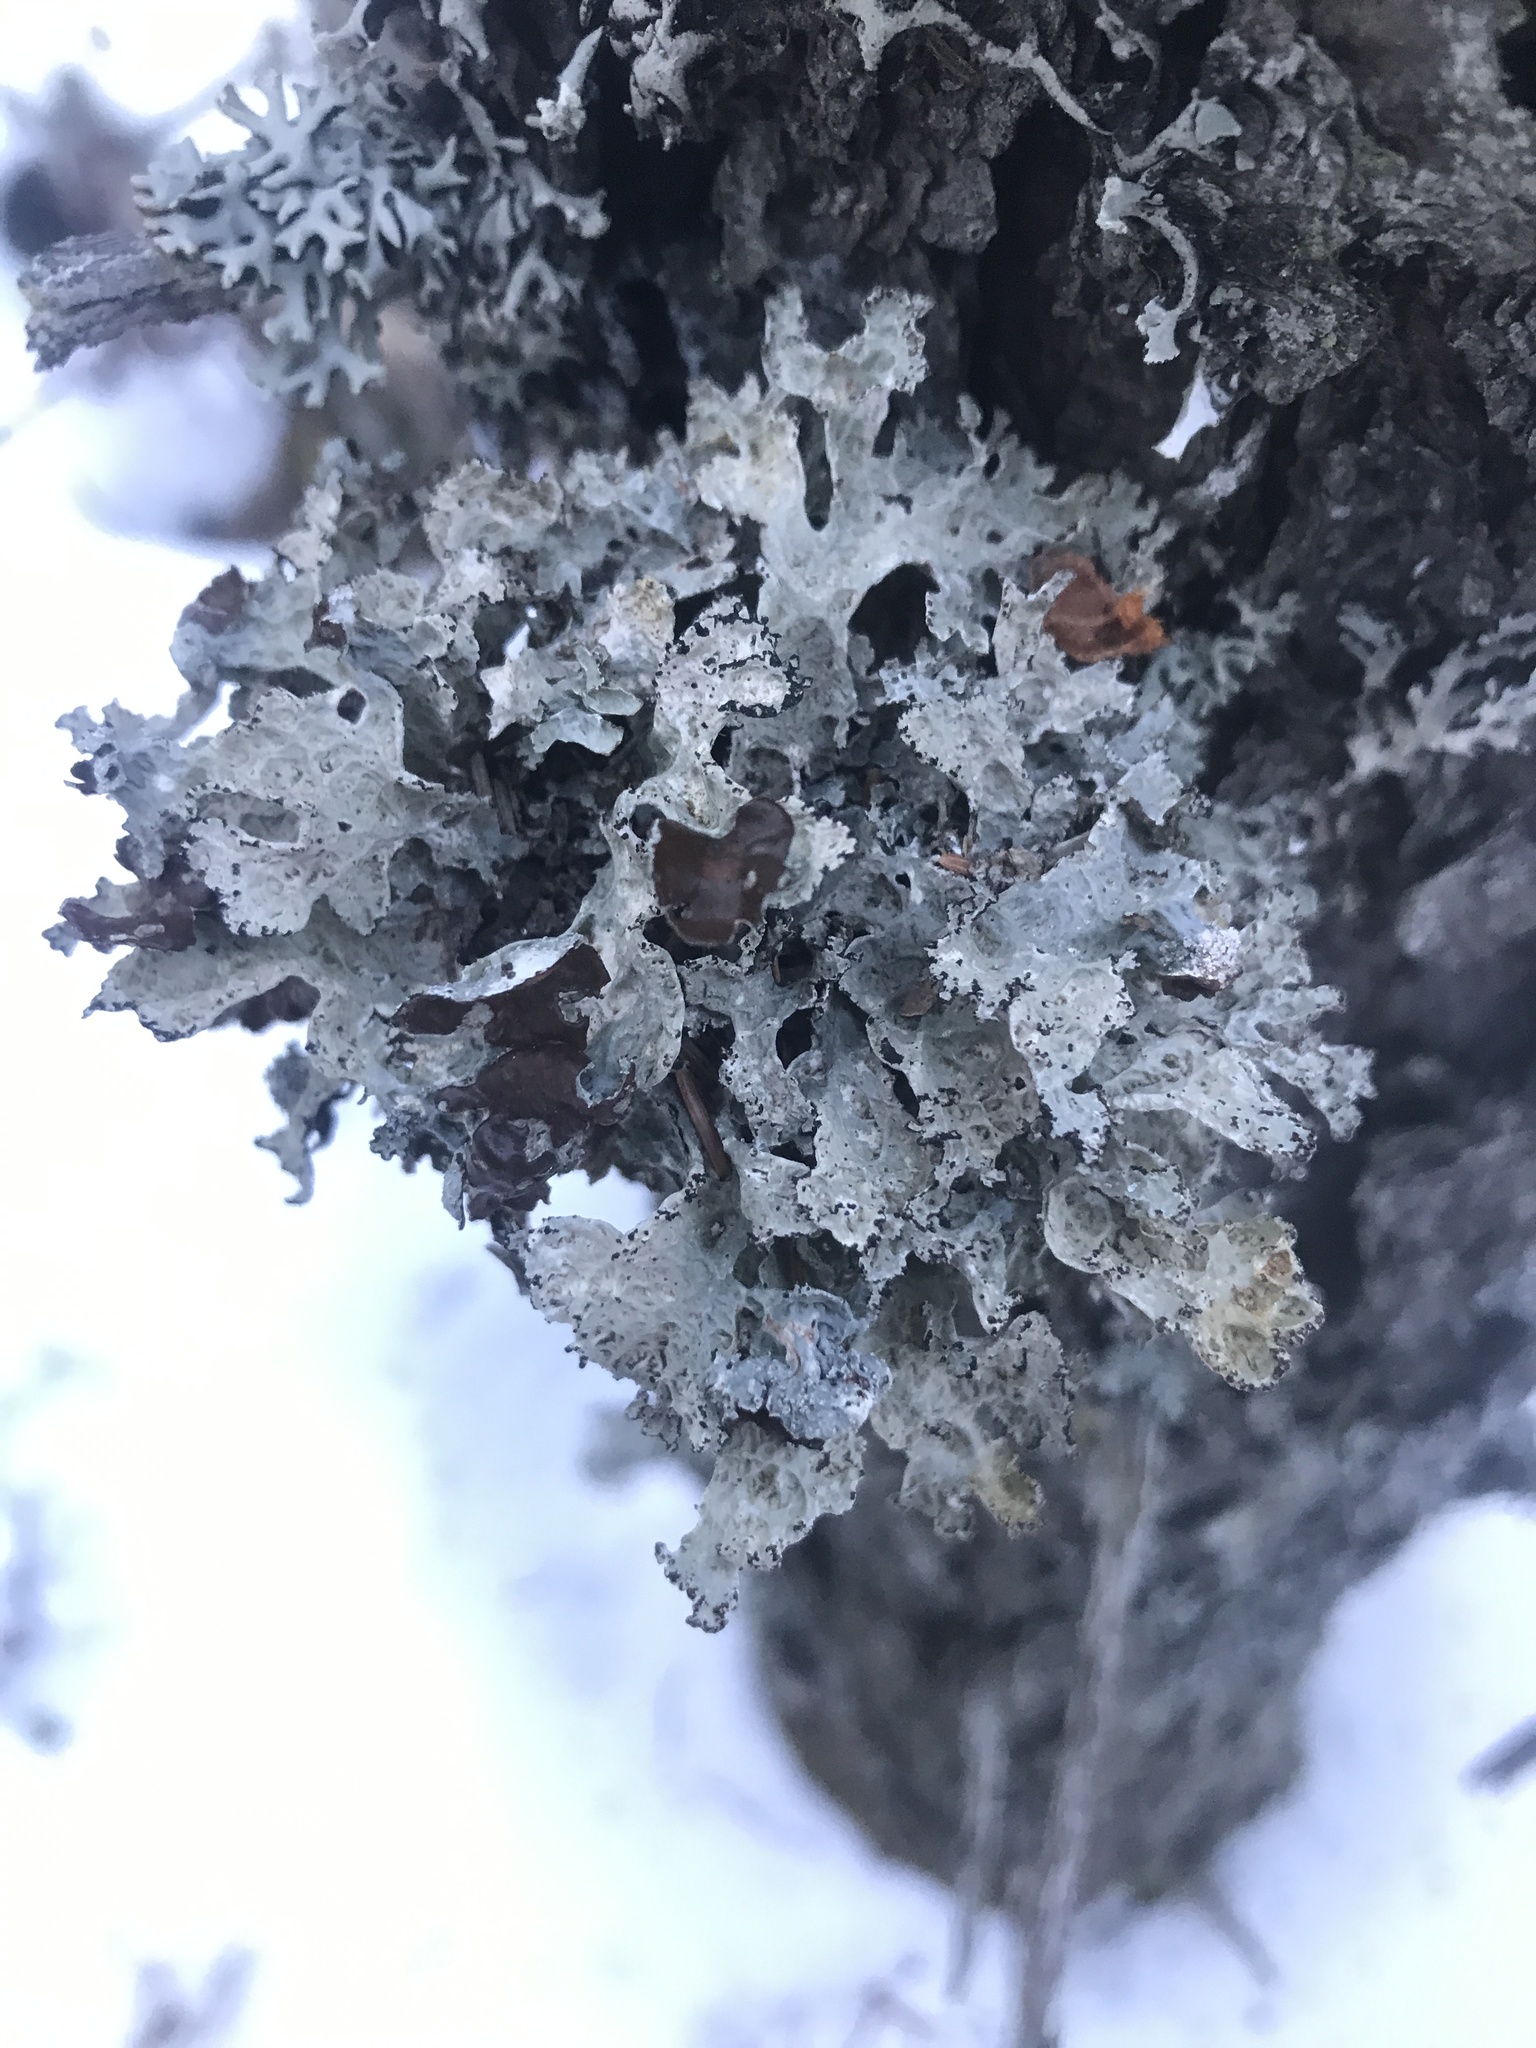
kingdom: Fungi
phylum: Ascomycota
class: Lecanoromycetes
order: Lecanorales
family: Parmeliaceae
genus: Platismatia
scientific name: Platismatia tuckermanii
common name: Crumpled rag lichen
